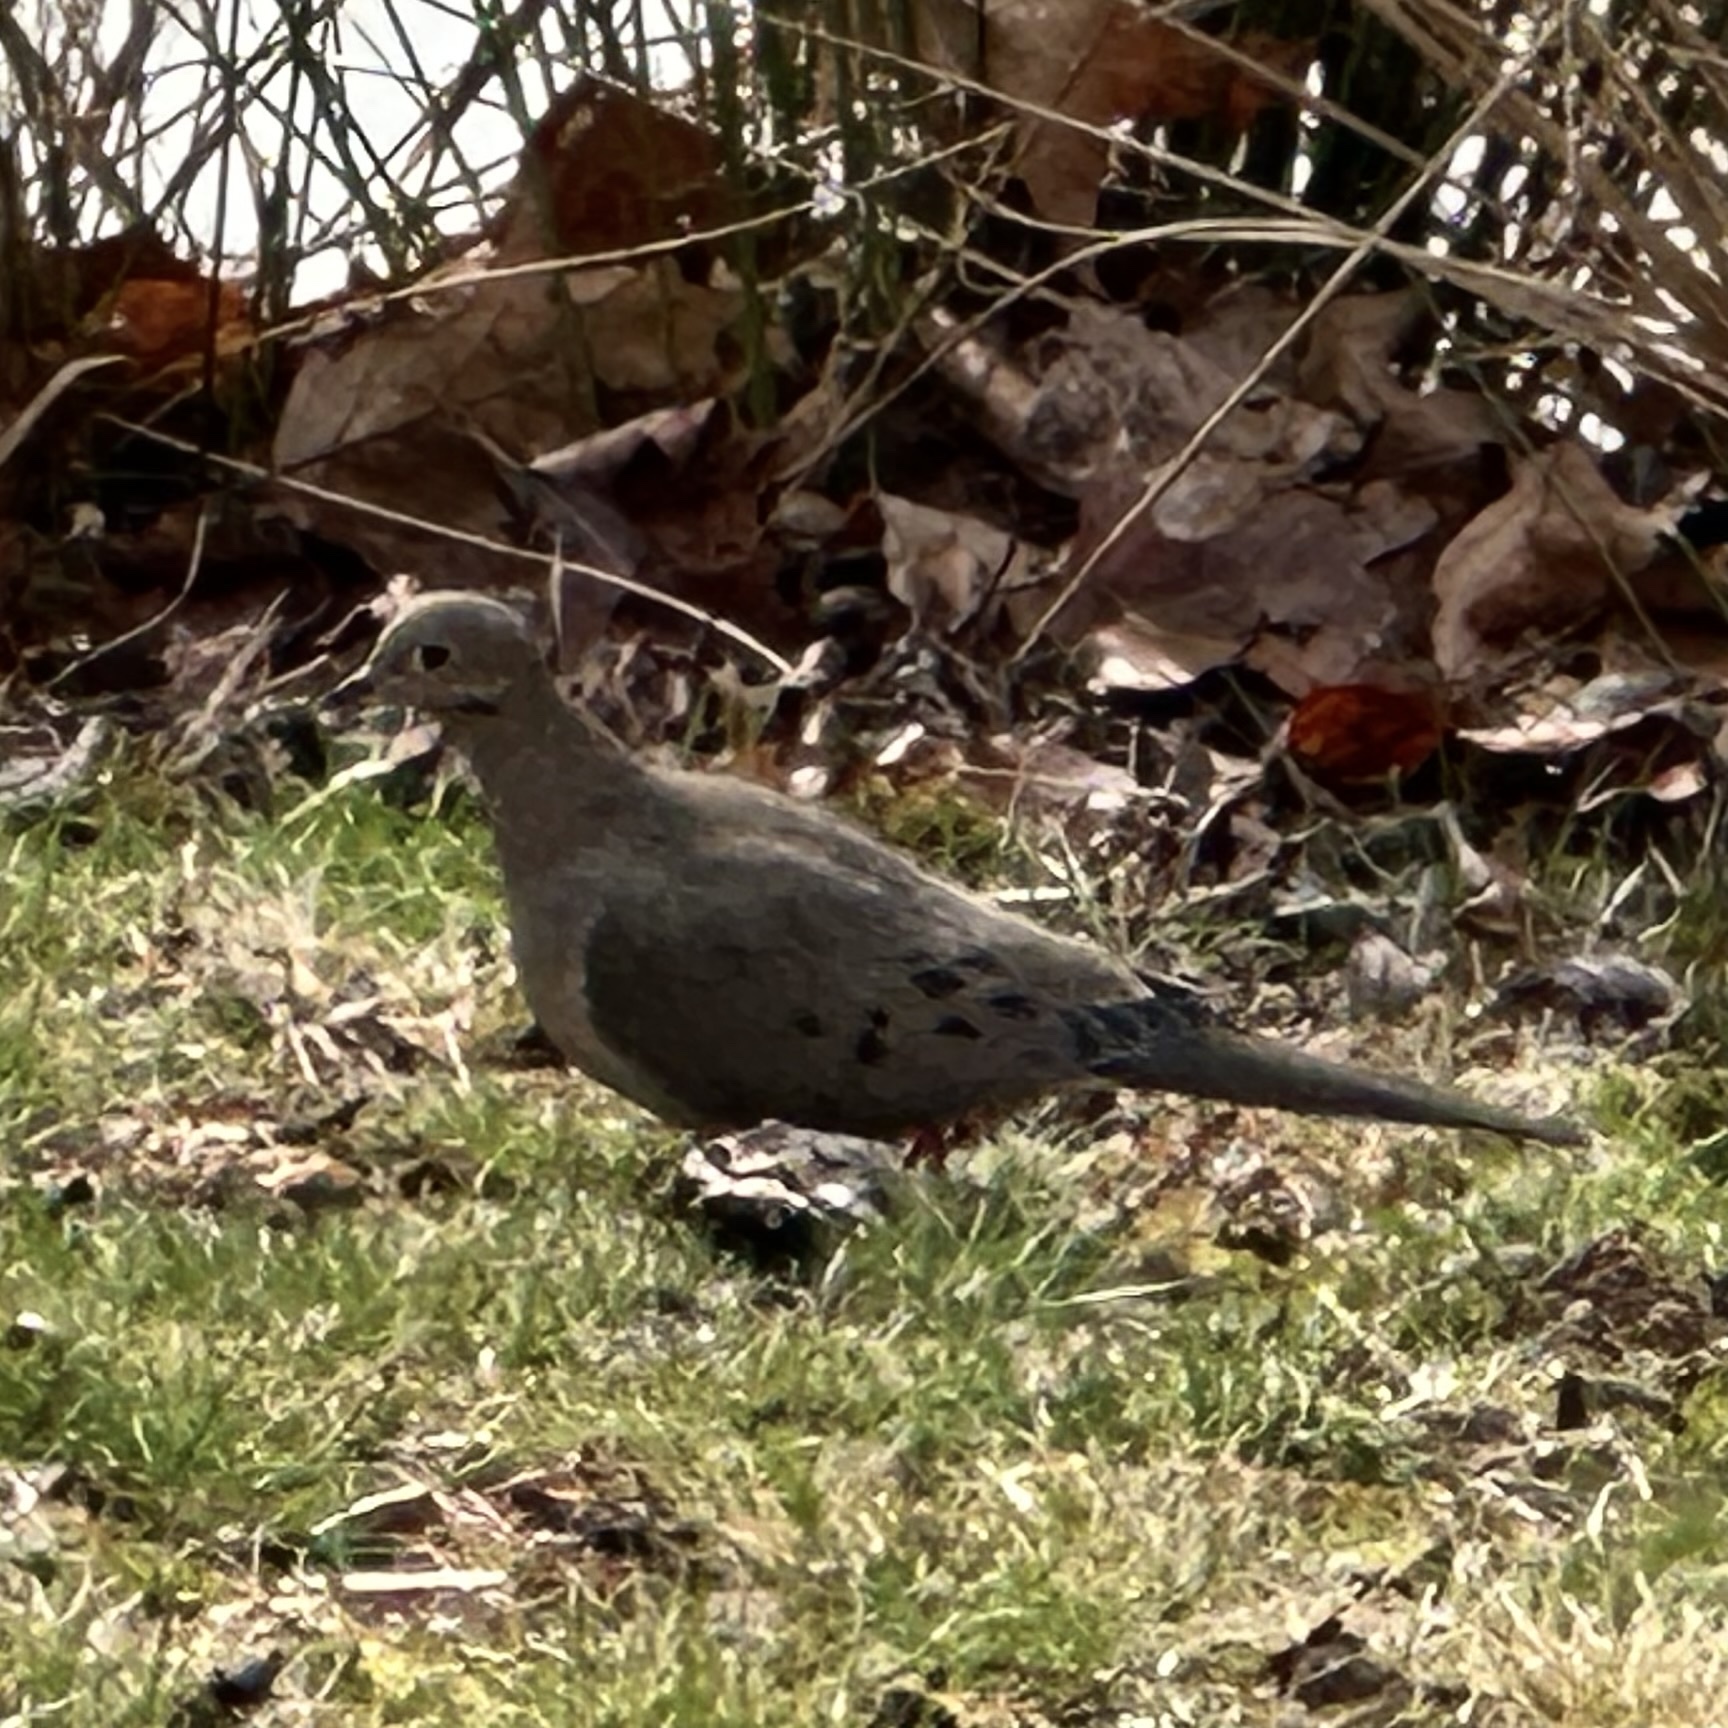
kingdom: Animalia
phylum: Chordata
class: Aves
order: Columbiformes
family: Columbidae
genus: Zenaida
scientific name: Zenaida macroura
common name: Mourning dove
